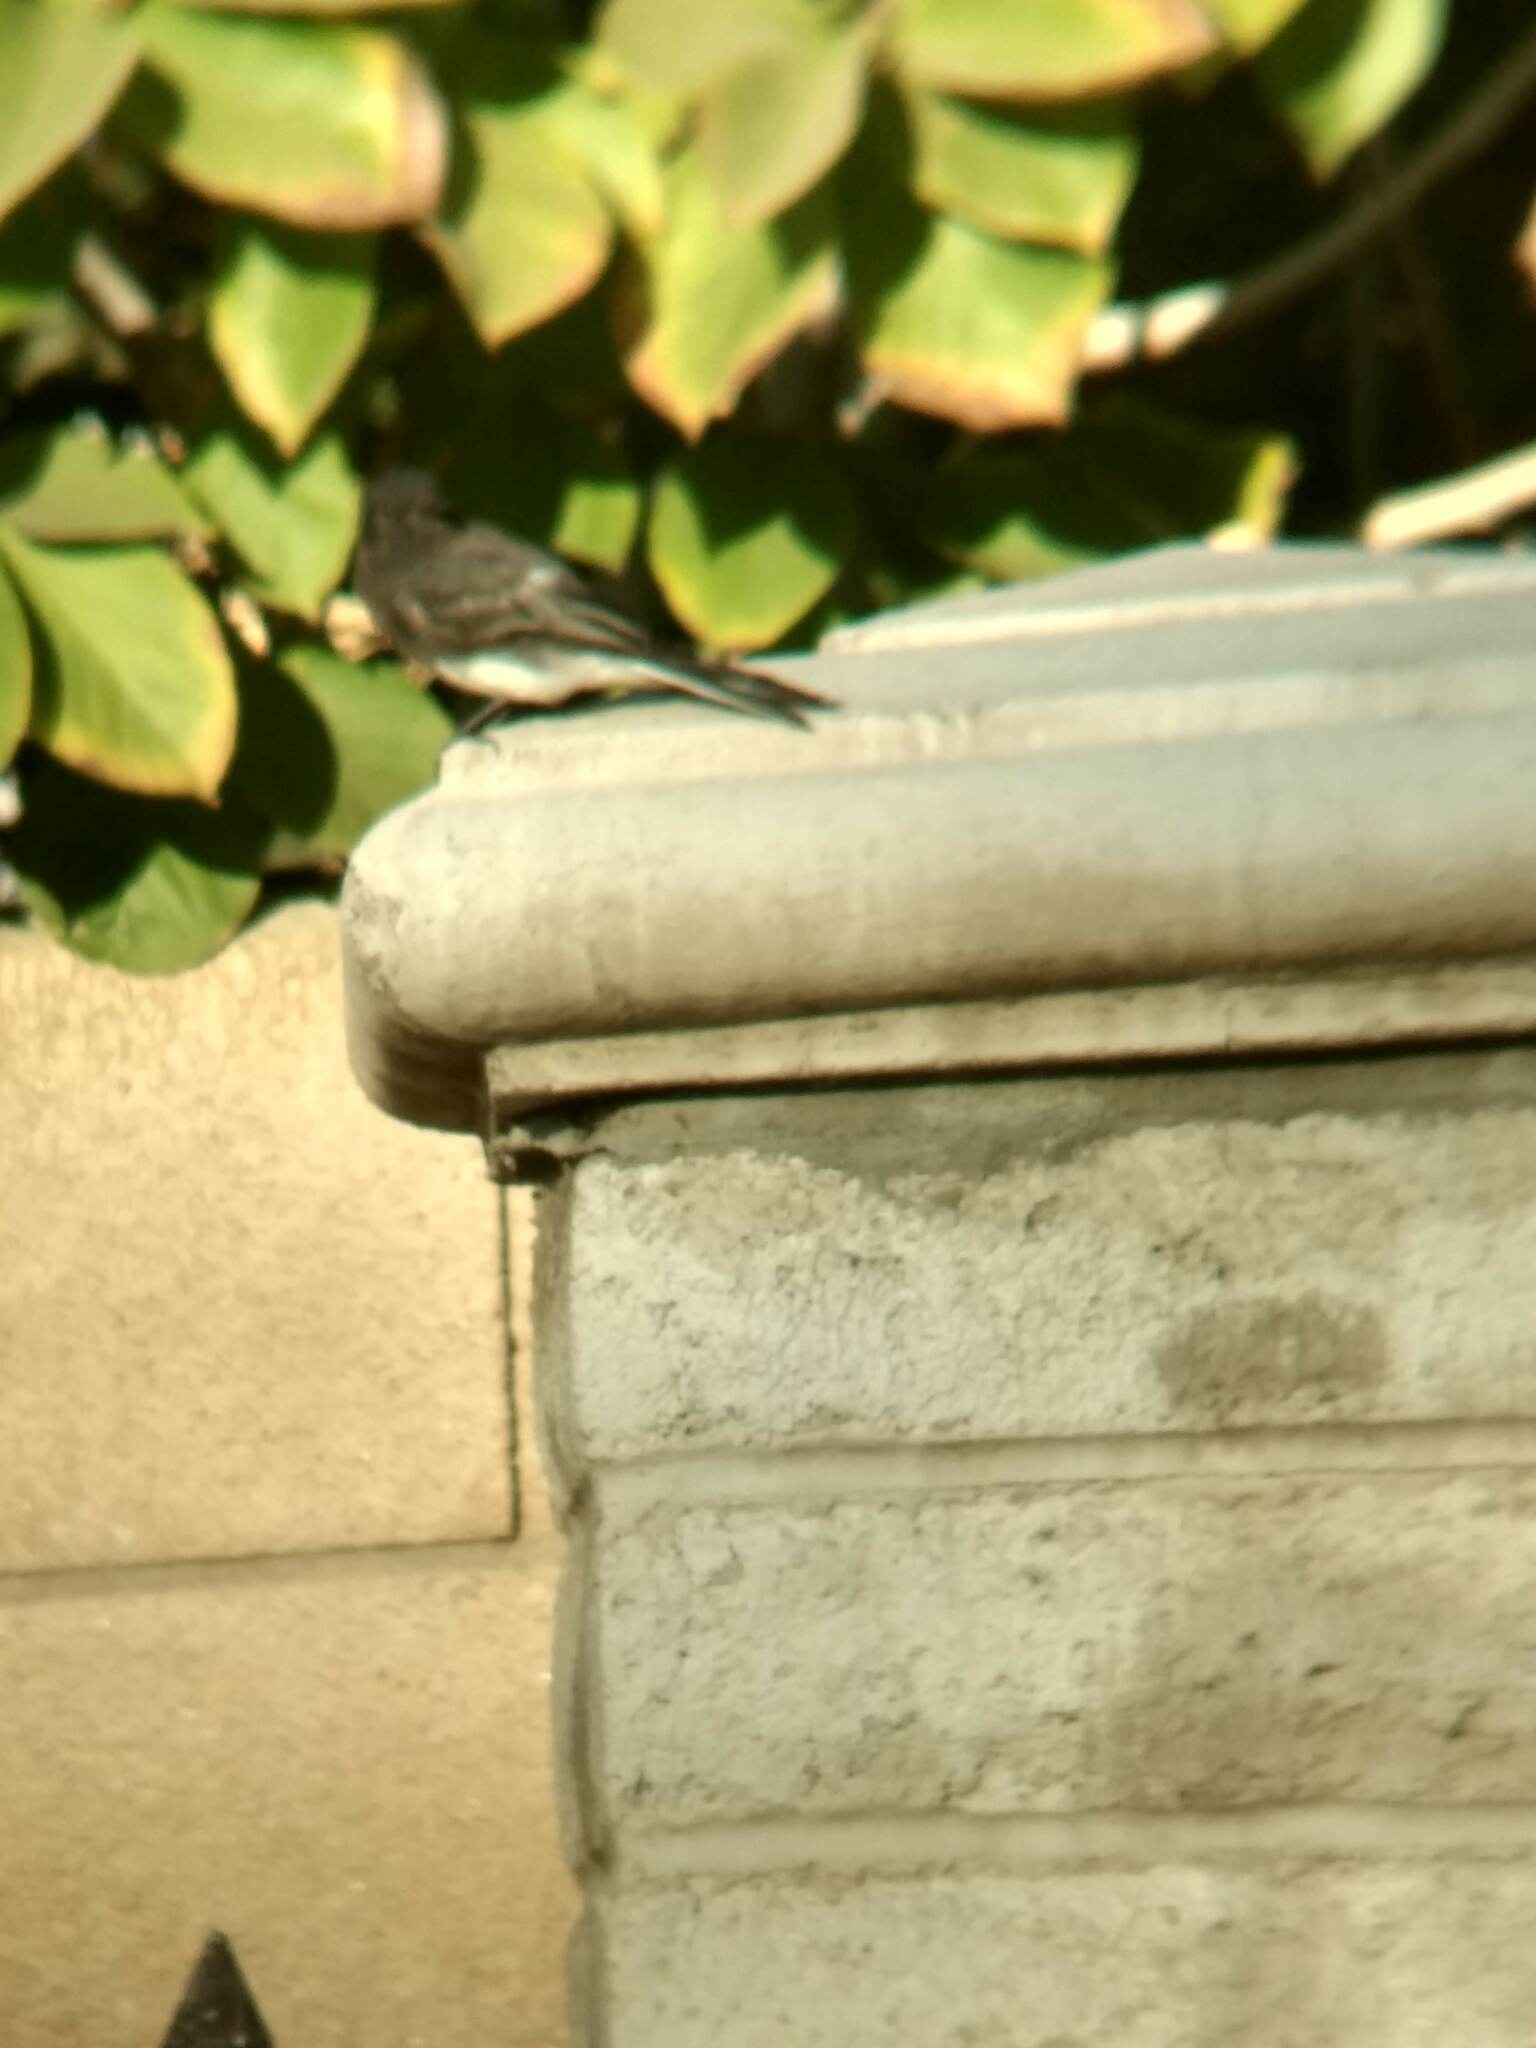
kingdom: Animalia
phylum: Chordata
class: Aves
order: Passeriformes
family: Tyrannidae
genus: Sayornis
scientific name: Sayornis nigricans
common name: Black phoebe
